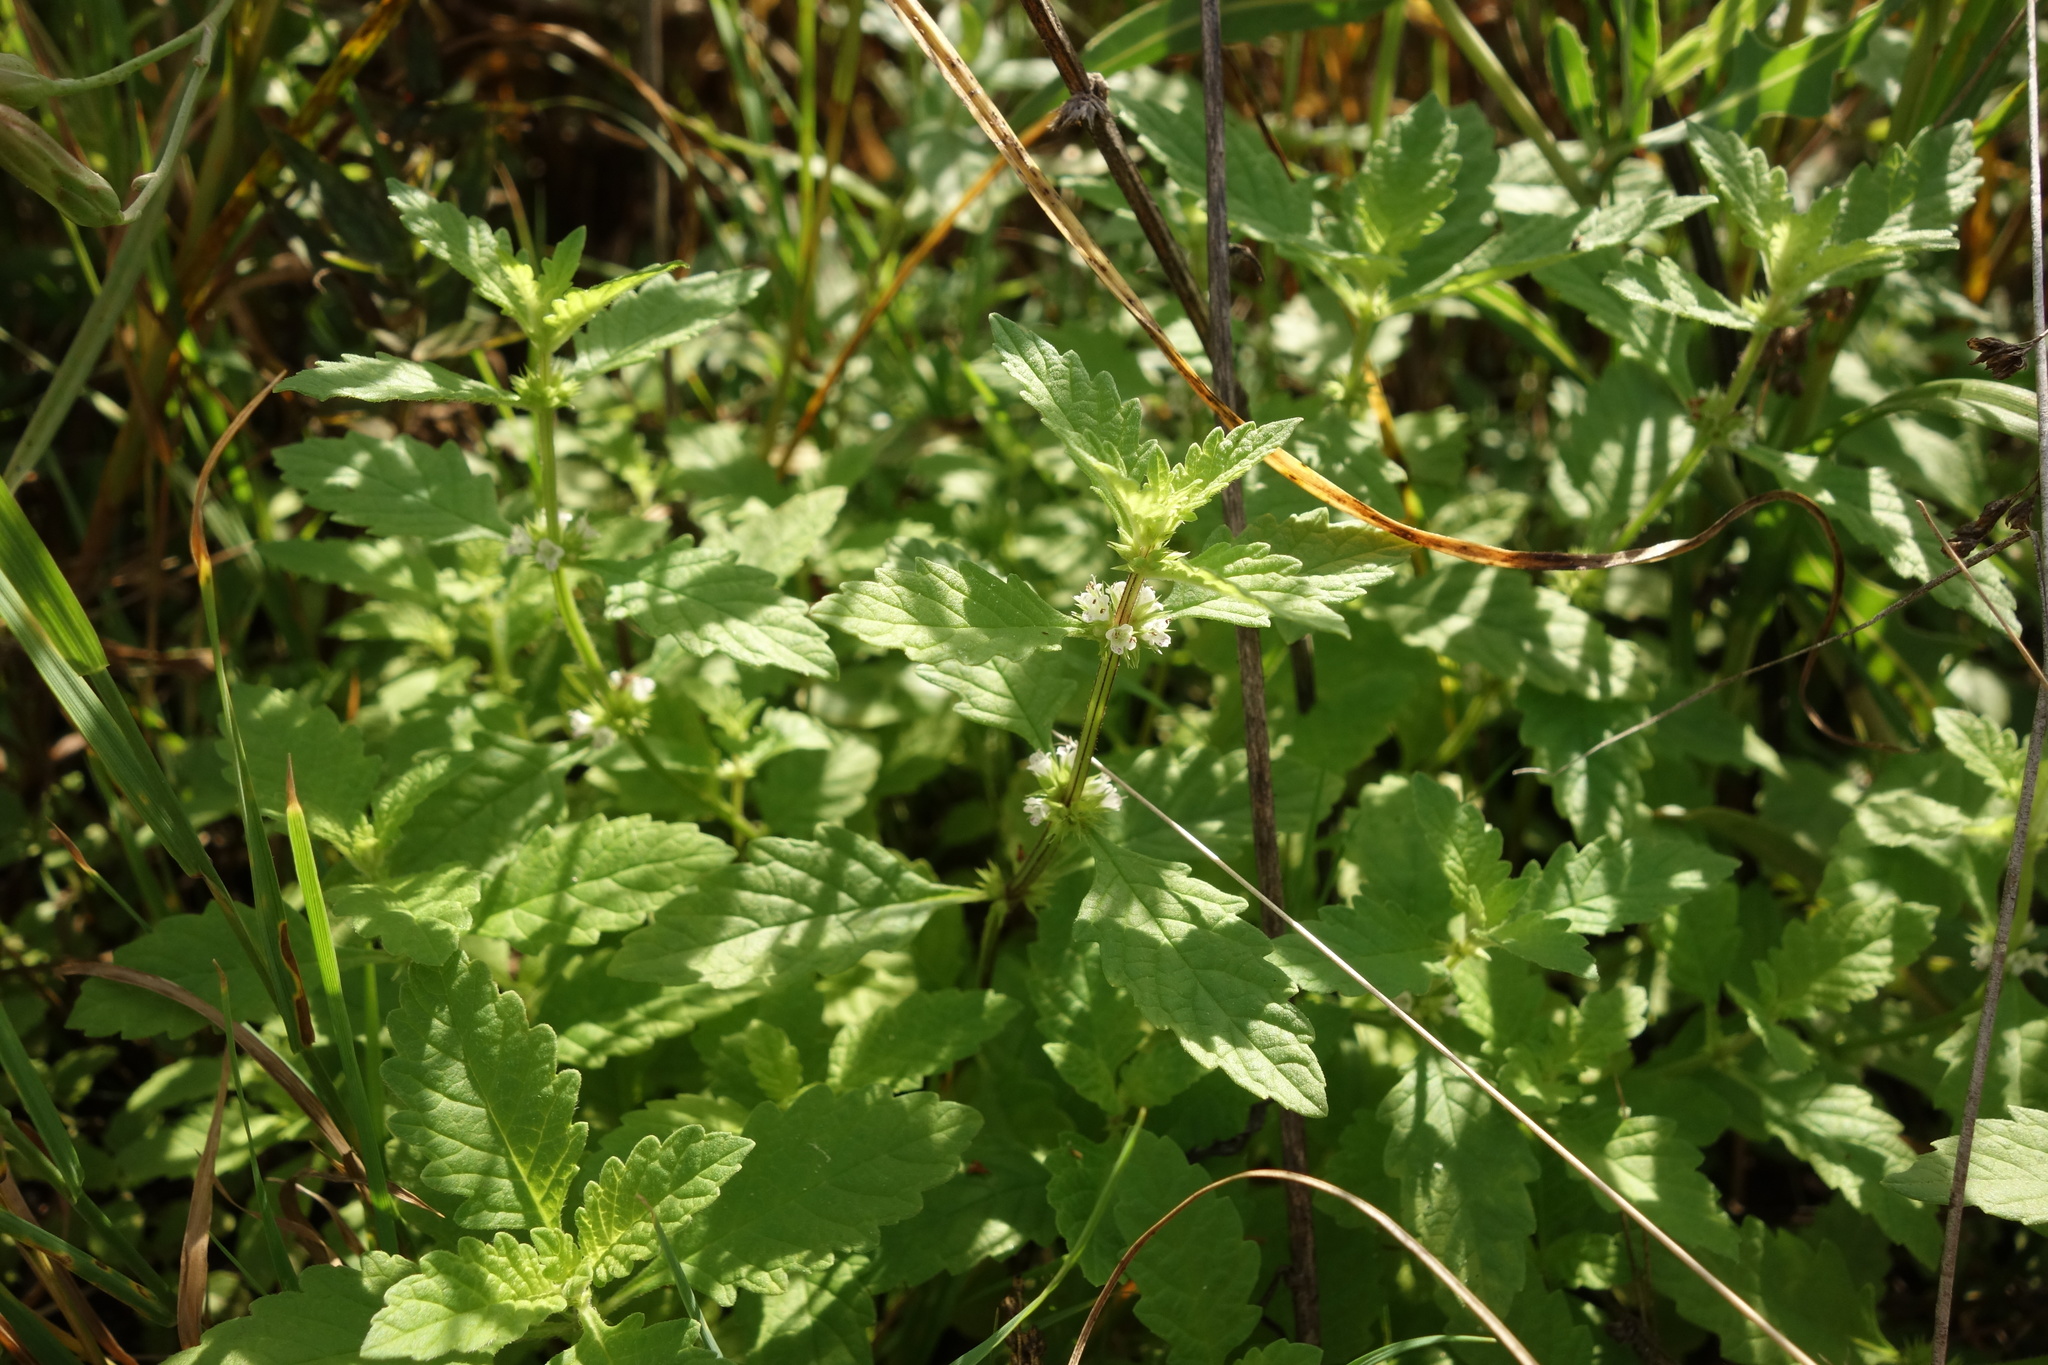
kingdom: Plantae
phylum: Tracheophyta
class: Magnoliopsida
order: Lamiales
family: Lamiaceae
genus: Lycopus
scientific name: Lycopus europaeus
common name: European bugleweed
